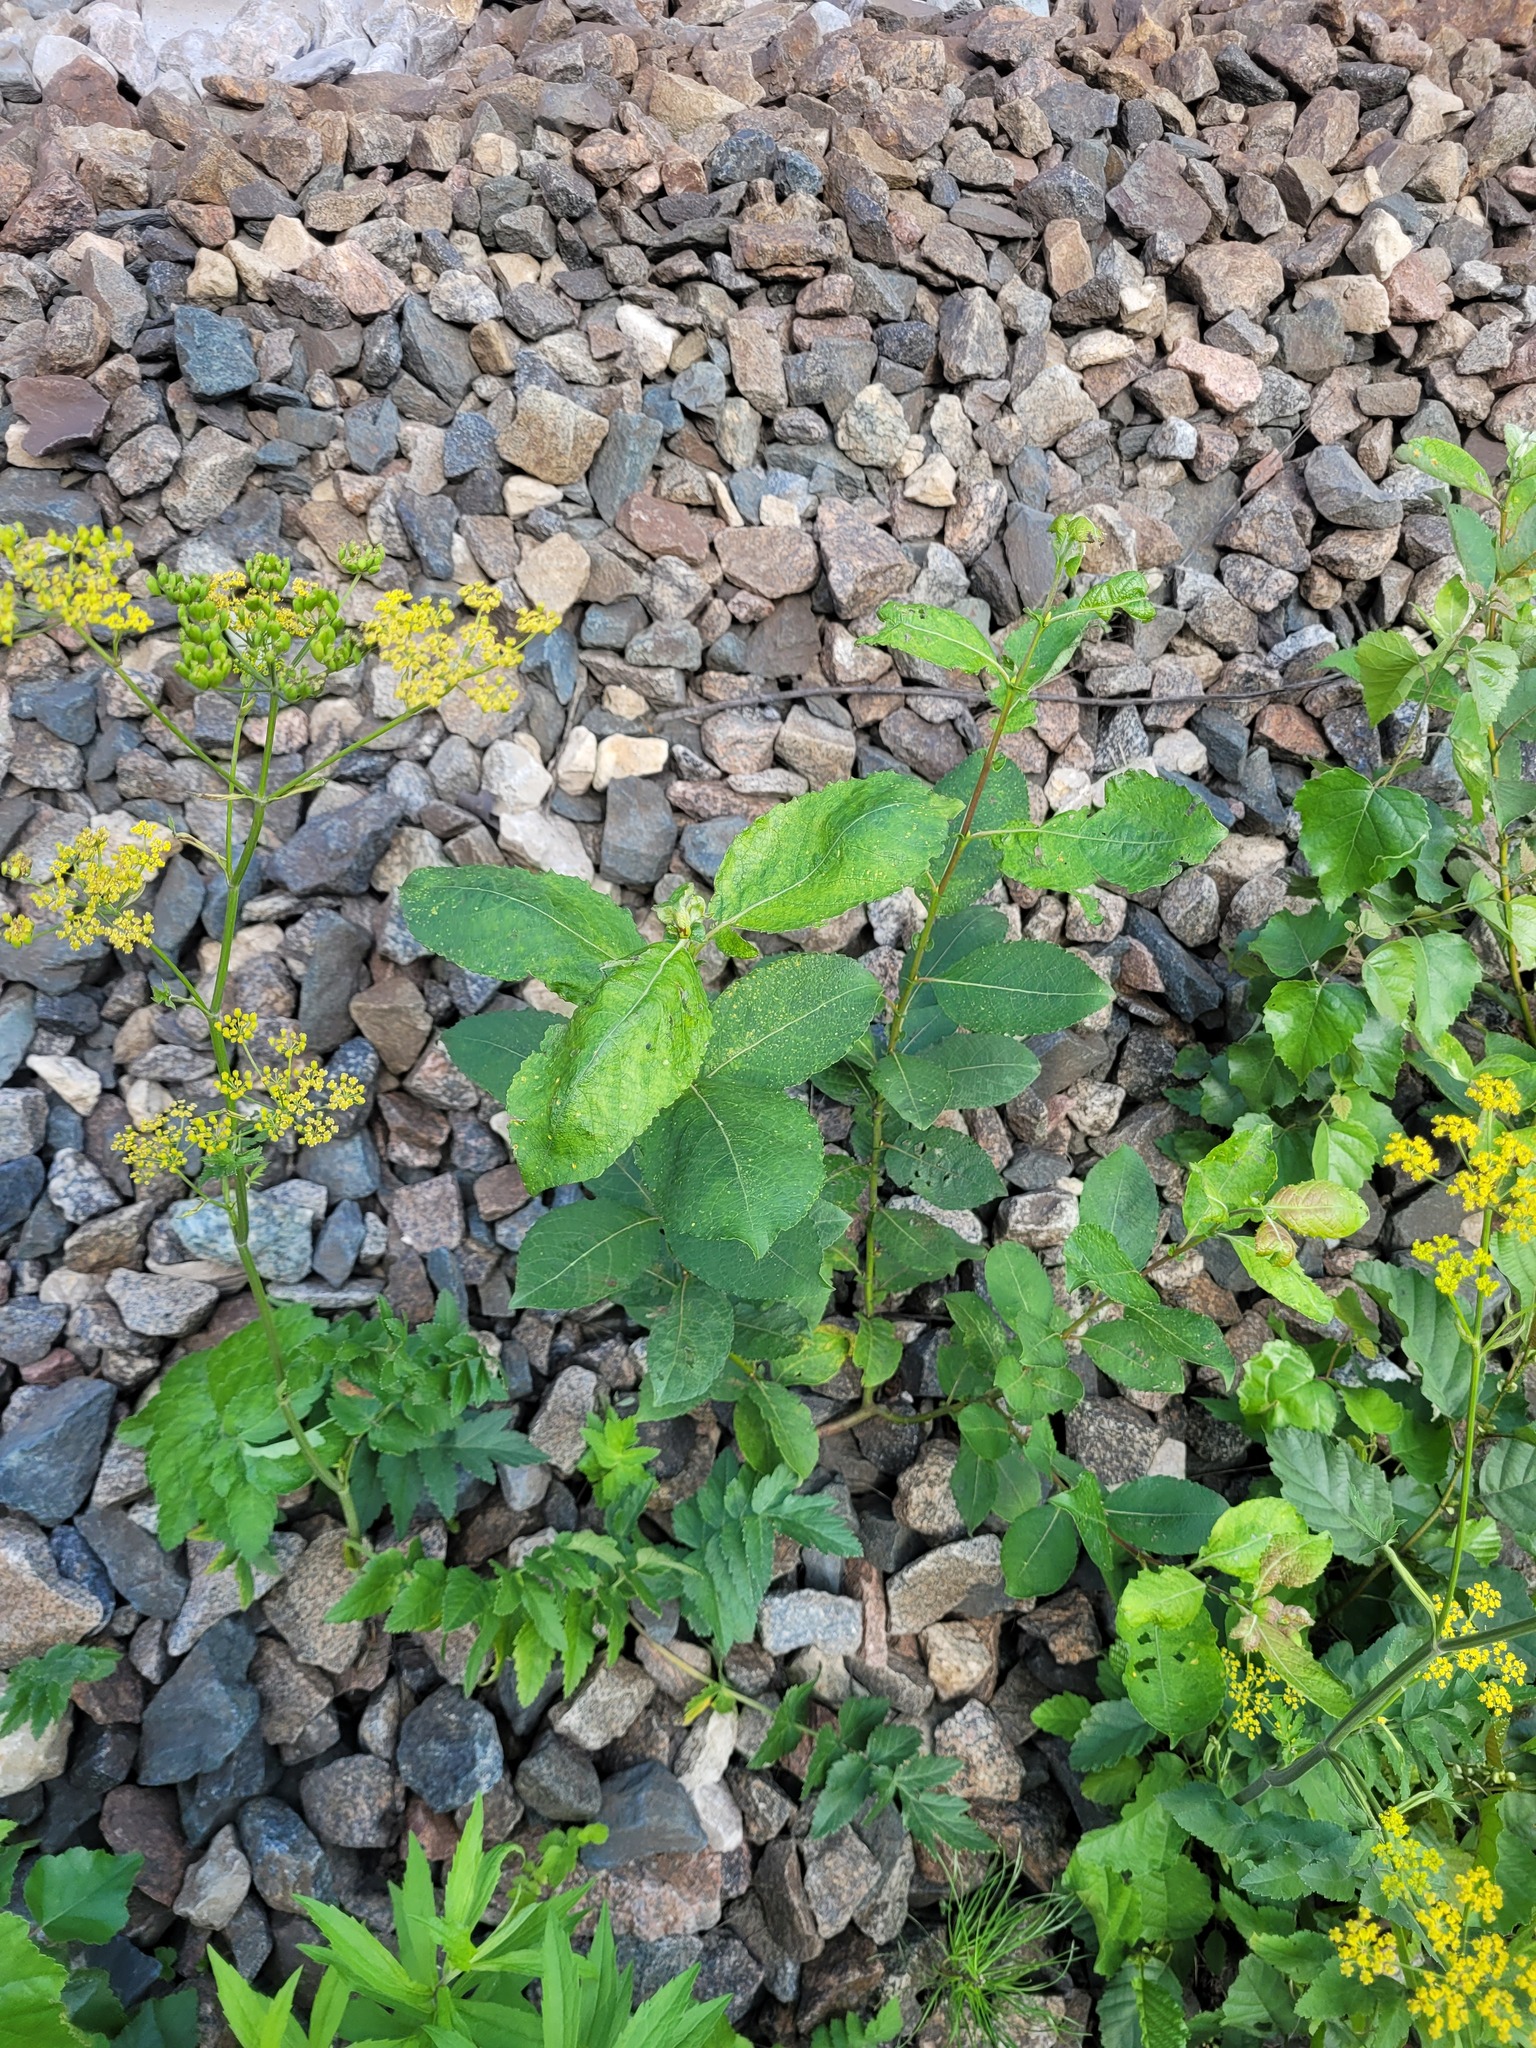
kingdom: Plantae
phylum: Tracheophyta
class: Magnoliopsida
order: Malpighiales
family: Salicaceae
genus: Salix
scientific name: Salix caprea
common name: Goat willow
